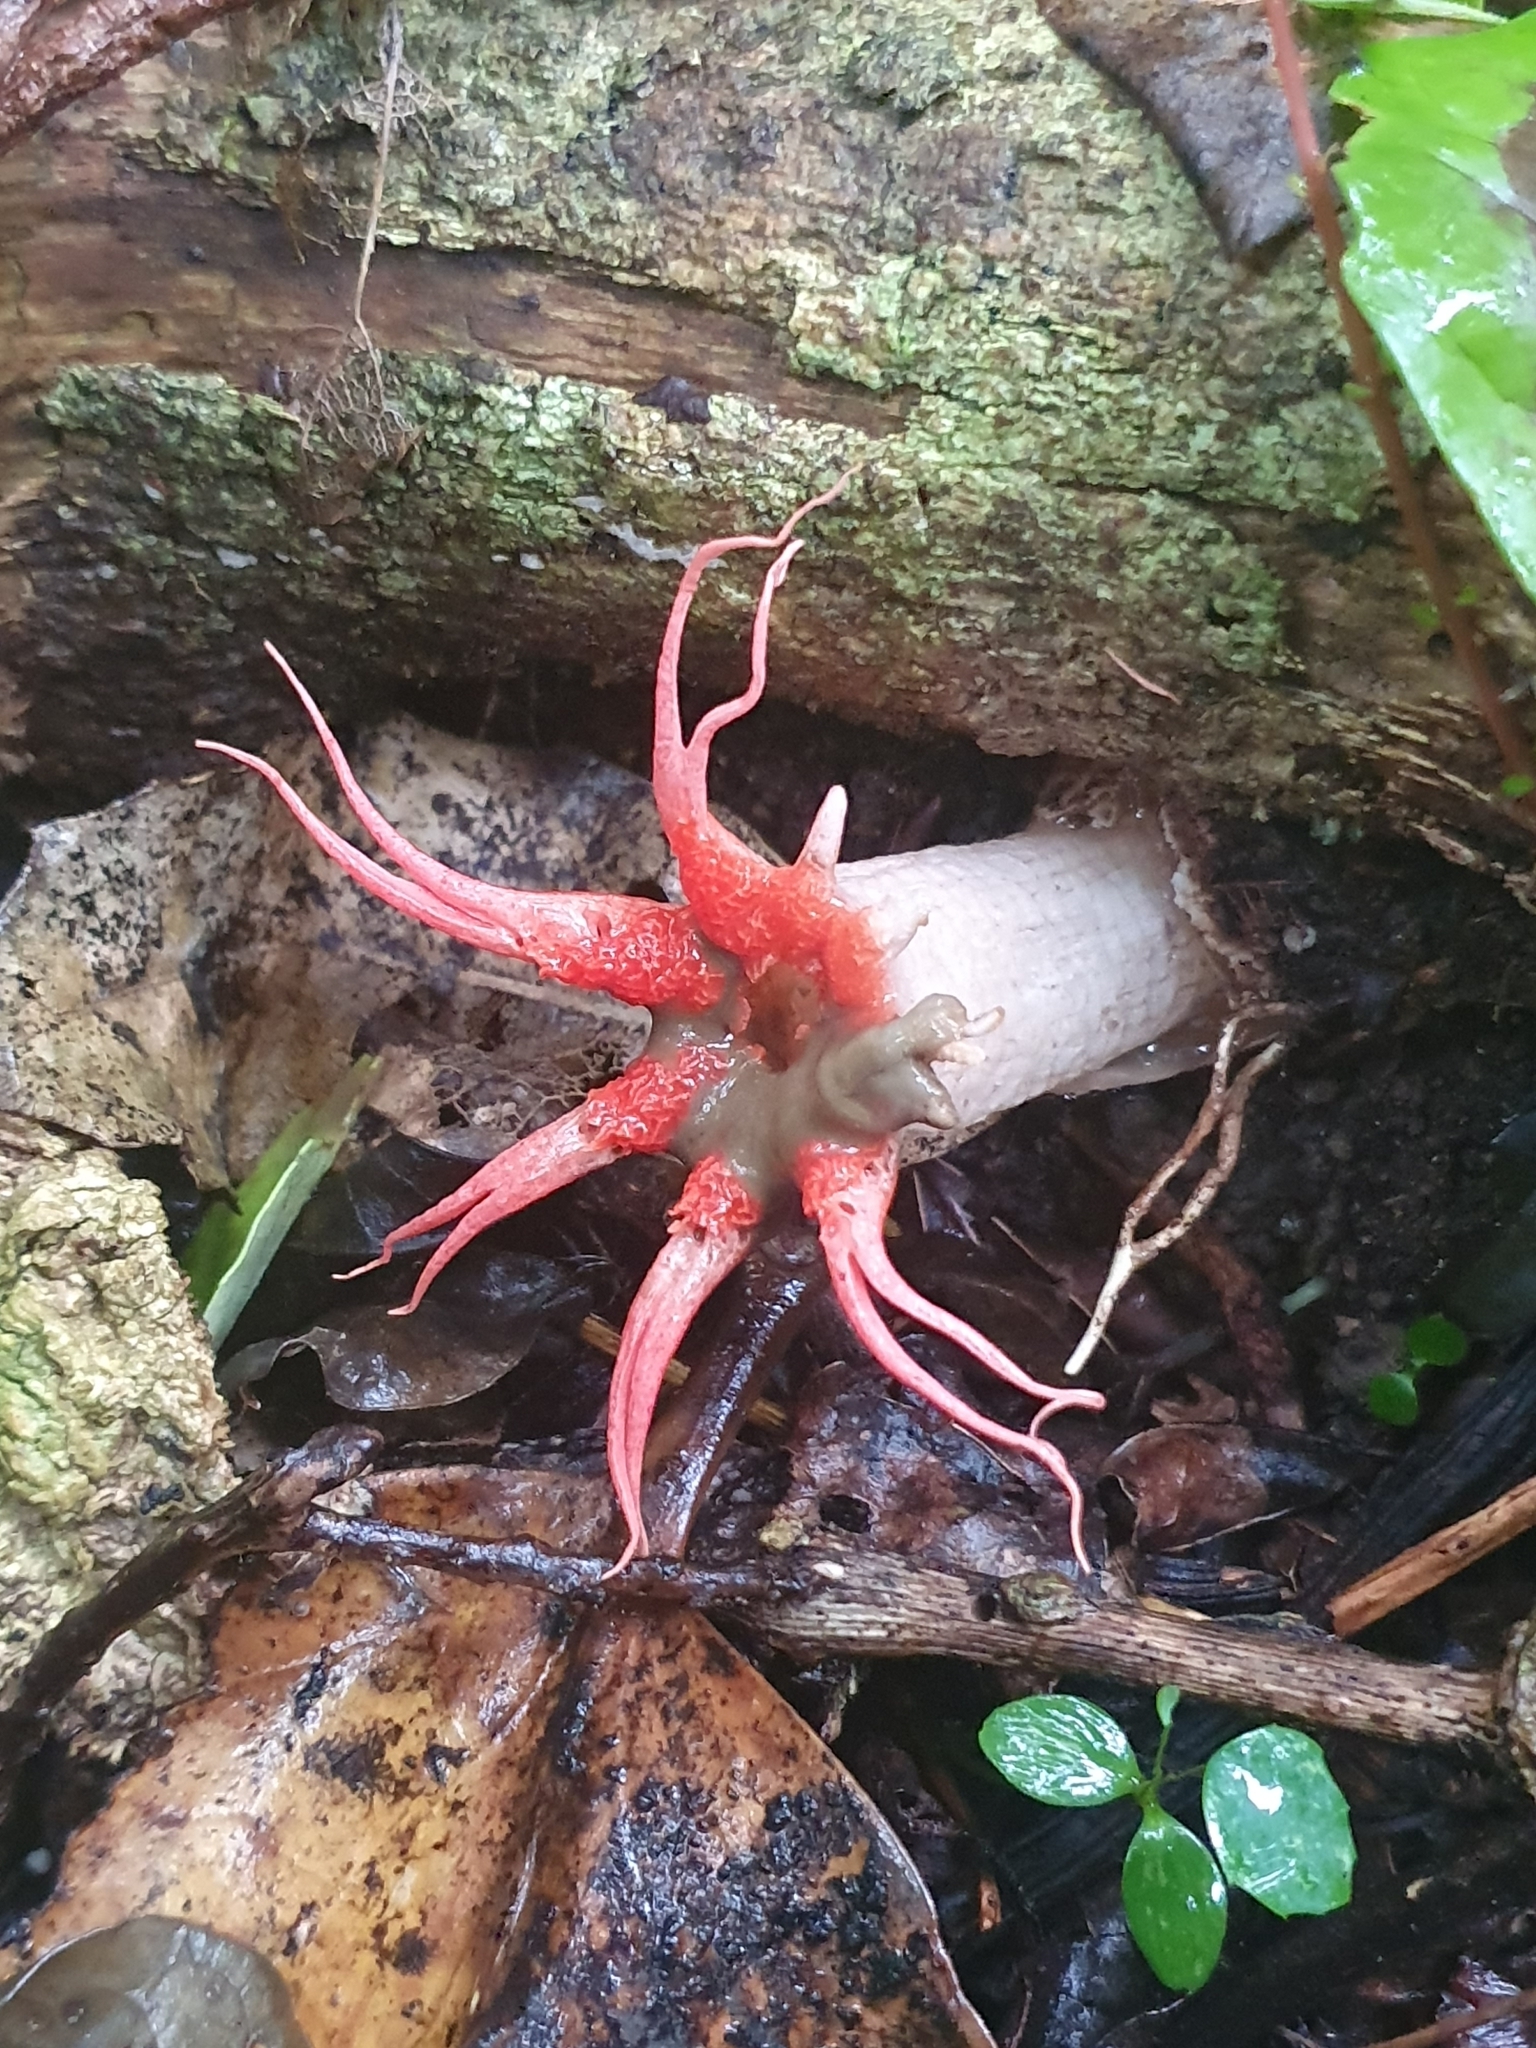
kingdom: Fungi
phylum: Basidiomycota
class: Agaricomycetes
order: Phallales
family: Phallaceae
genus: Aseroe
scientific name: Aseroe rubra
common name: Starfish fungus
